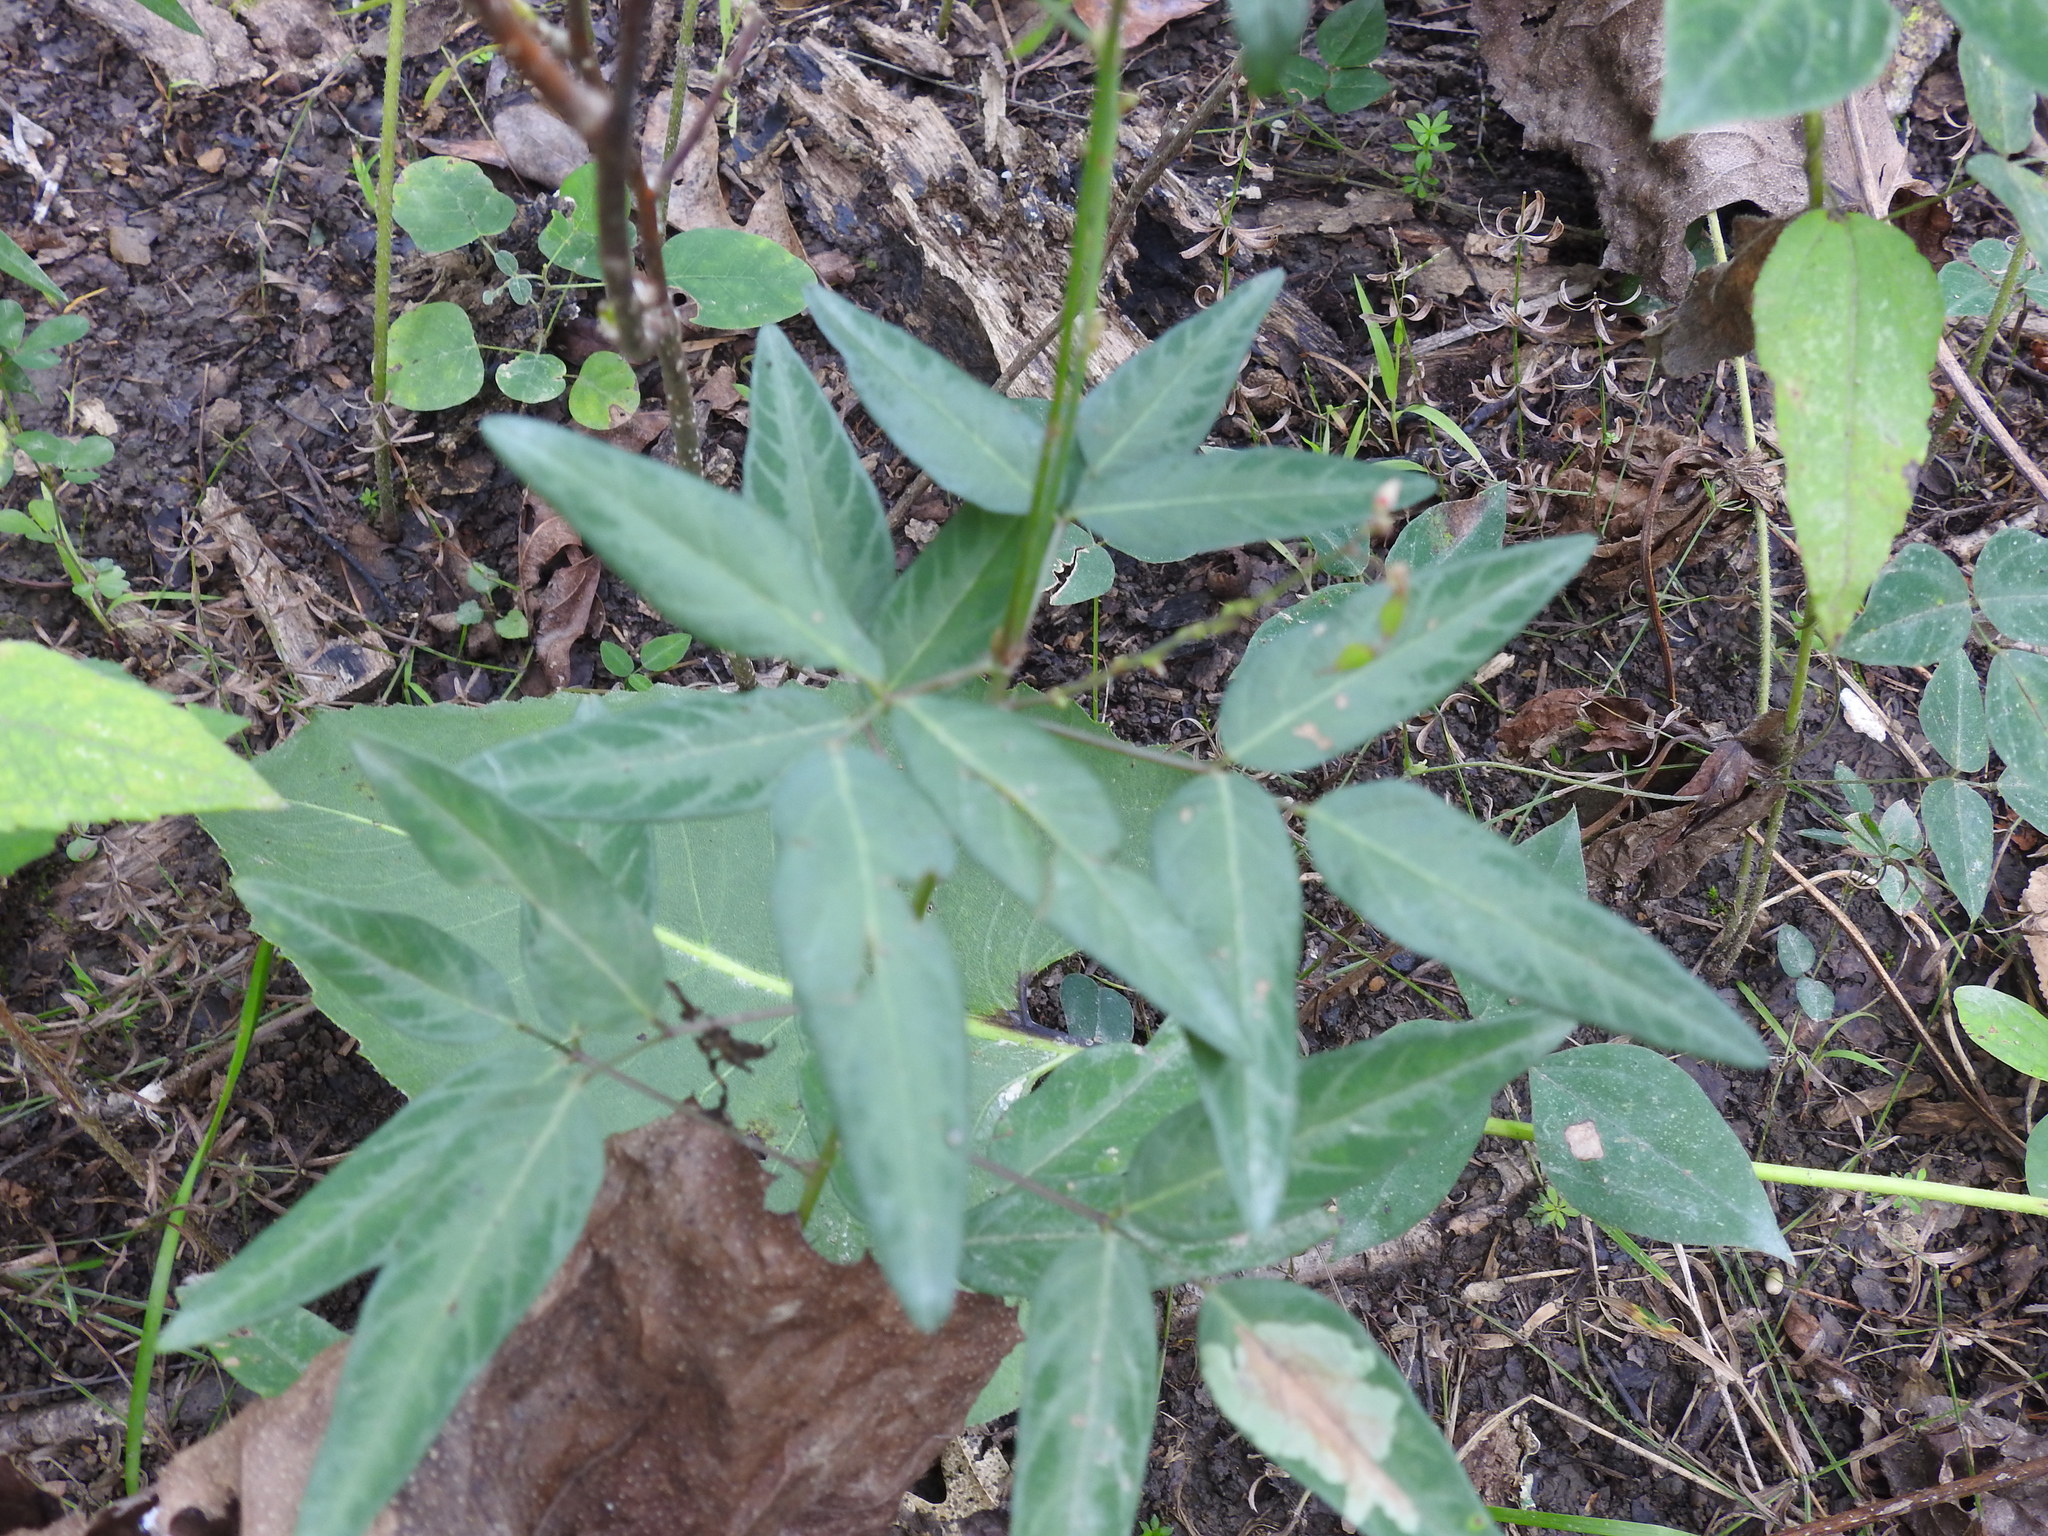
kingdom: Plantae
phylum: Tracheophyta
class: Magnoliopsida
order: Fabales
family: Fabaceae
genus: Desmodium
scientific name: Desmodium paniculatum
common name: Panicled tick-clover
